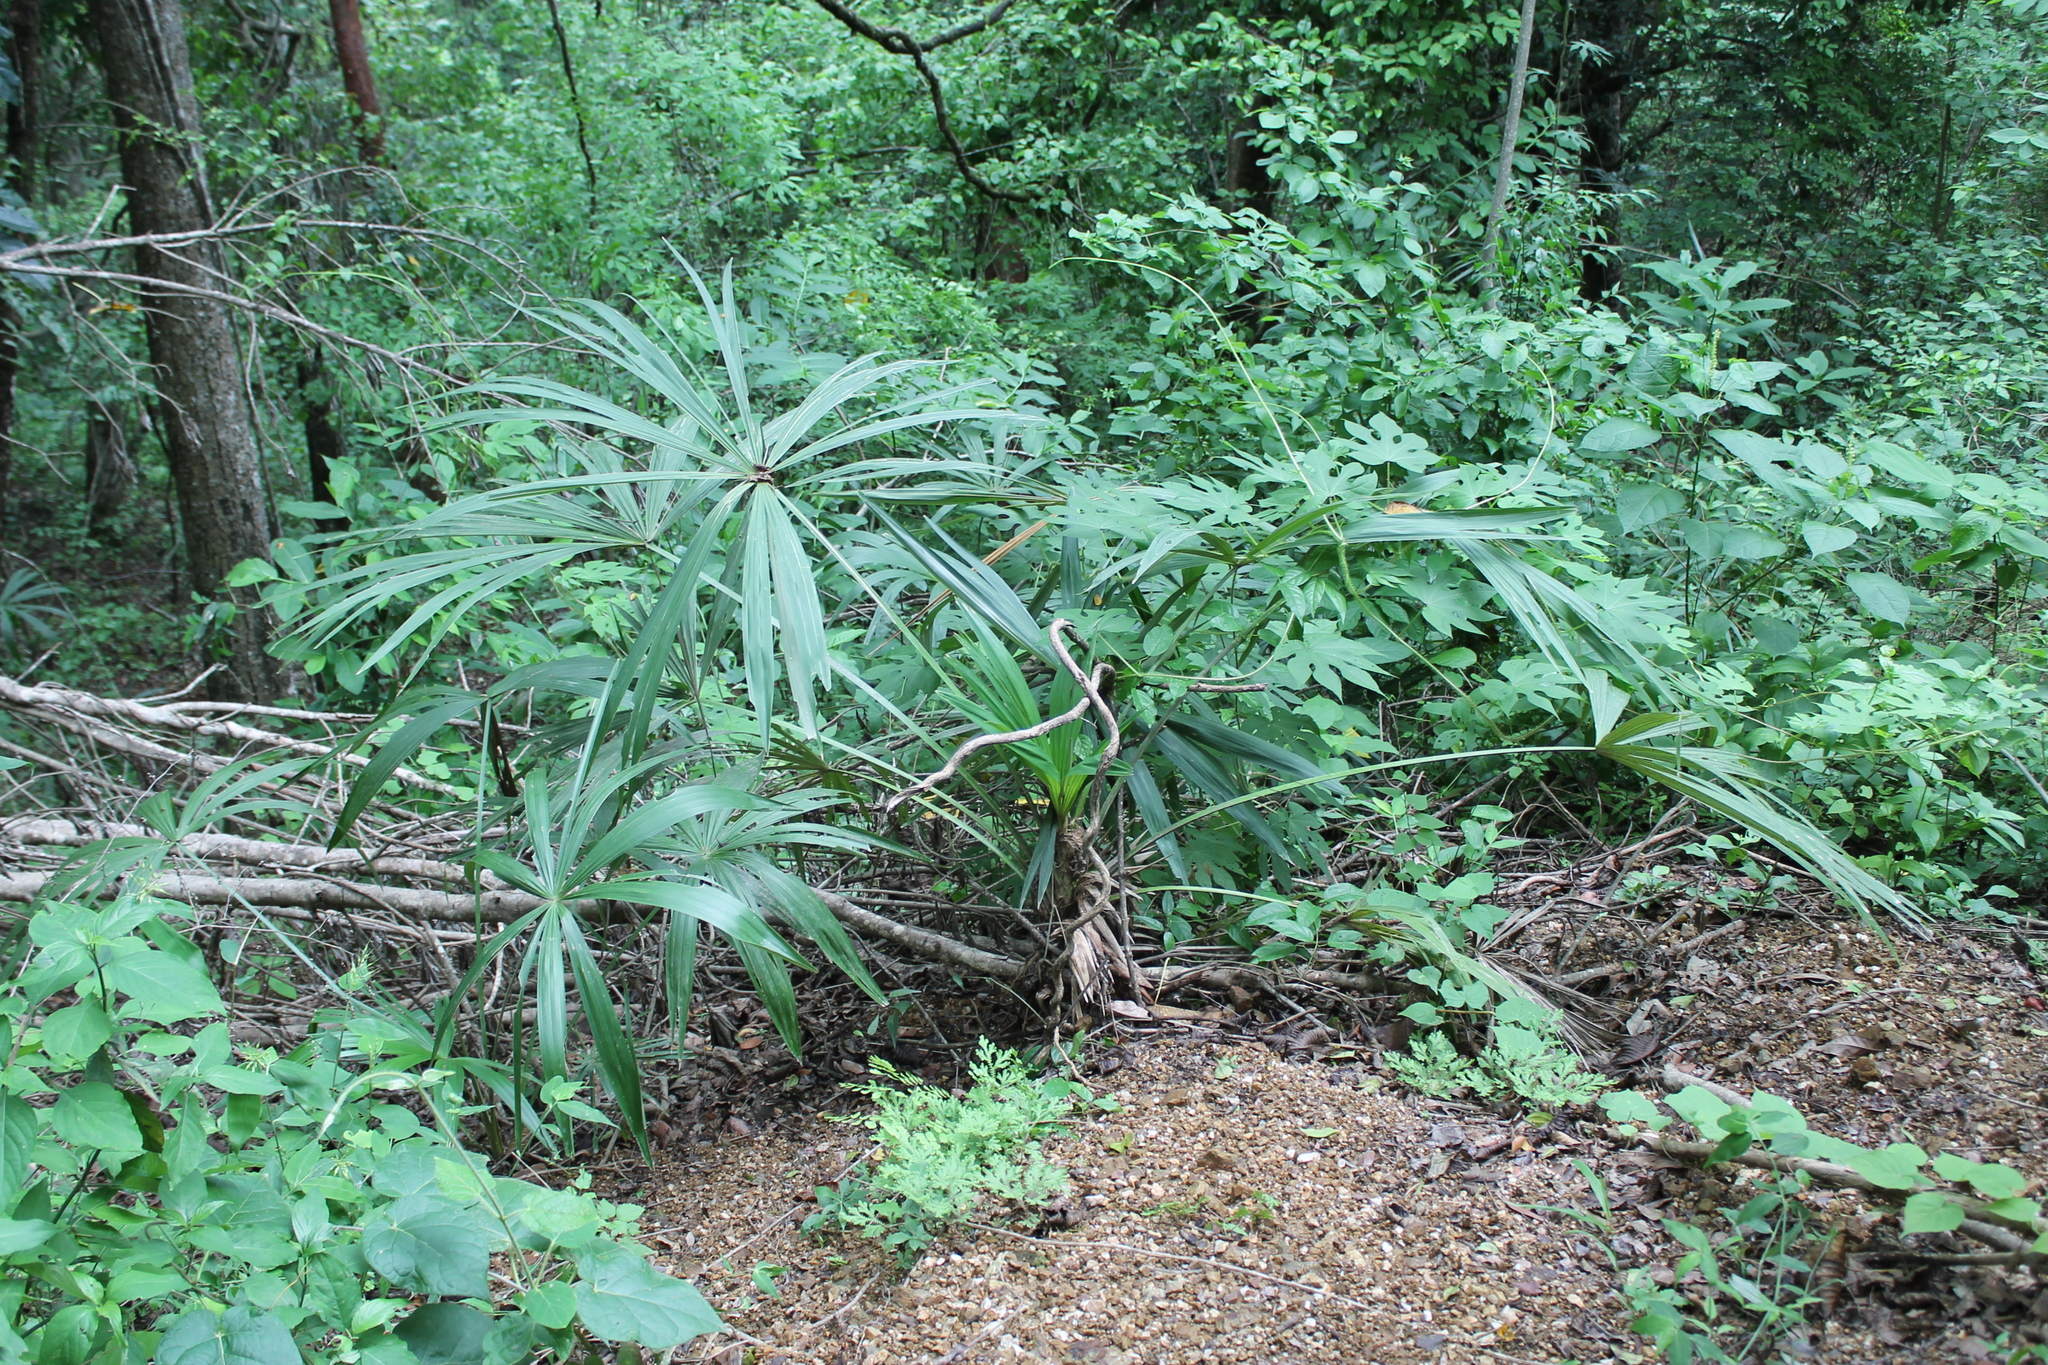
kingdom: Plantae
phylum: Tracheophyta
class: Liliopsida
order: Arecales
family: Arecaceae
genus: Cryosophila
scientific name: Cryosophila nana
